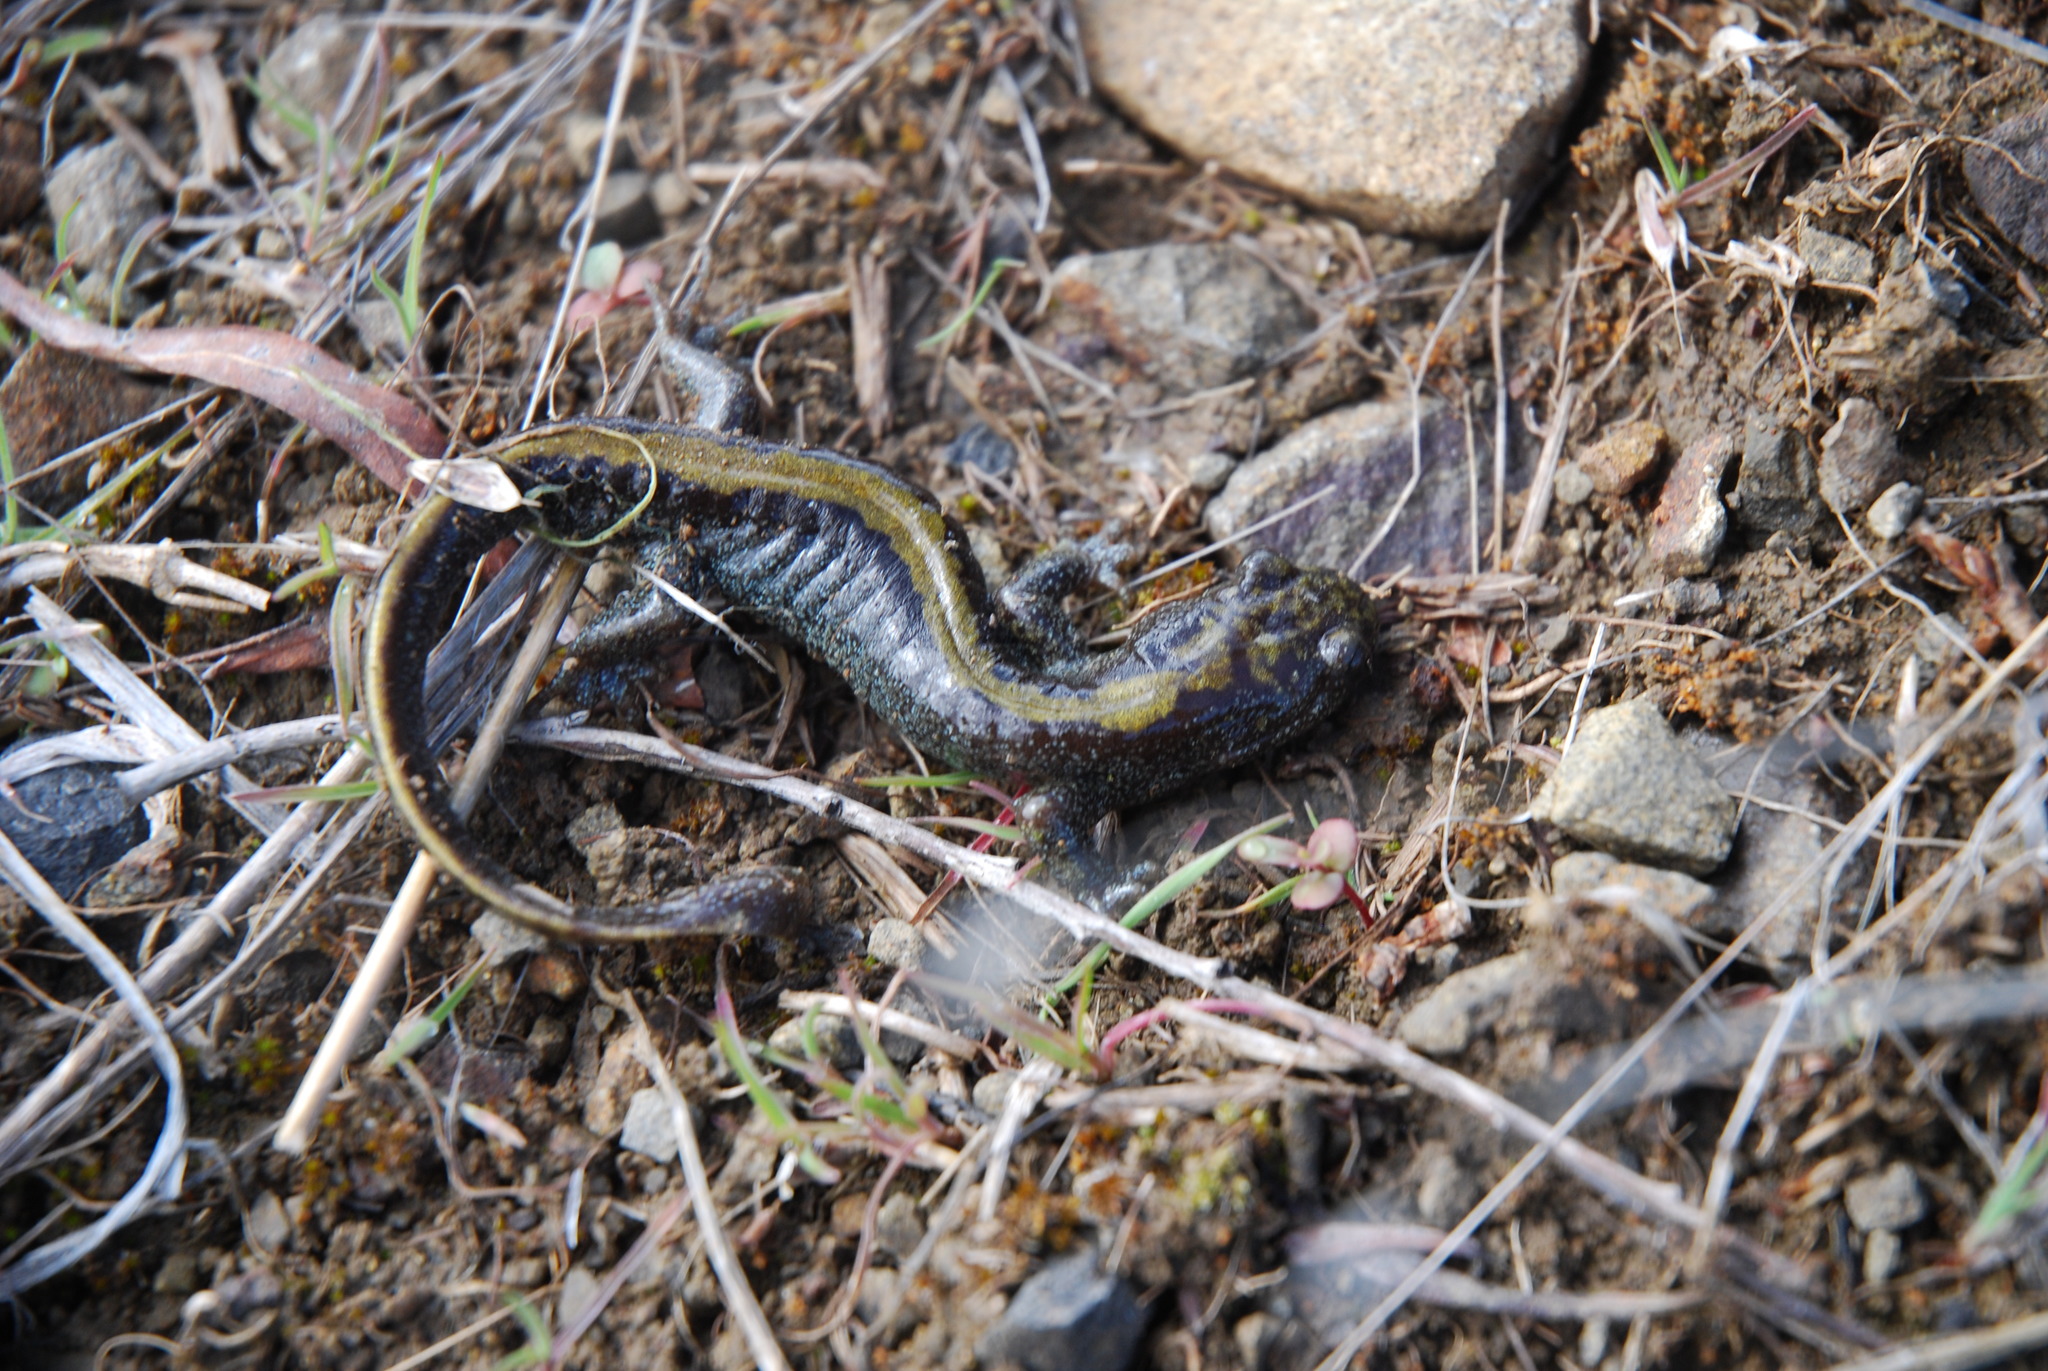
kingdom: Animalia
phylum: Chordata
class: Amphibia
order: Caudata
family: Ambystomatidae
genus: Ambystoma
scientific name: Ambystoma macrodactylum
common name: Long-toed salamander
